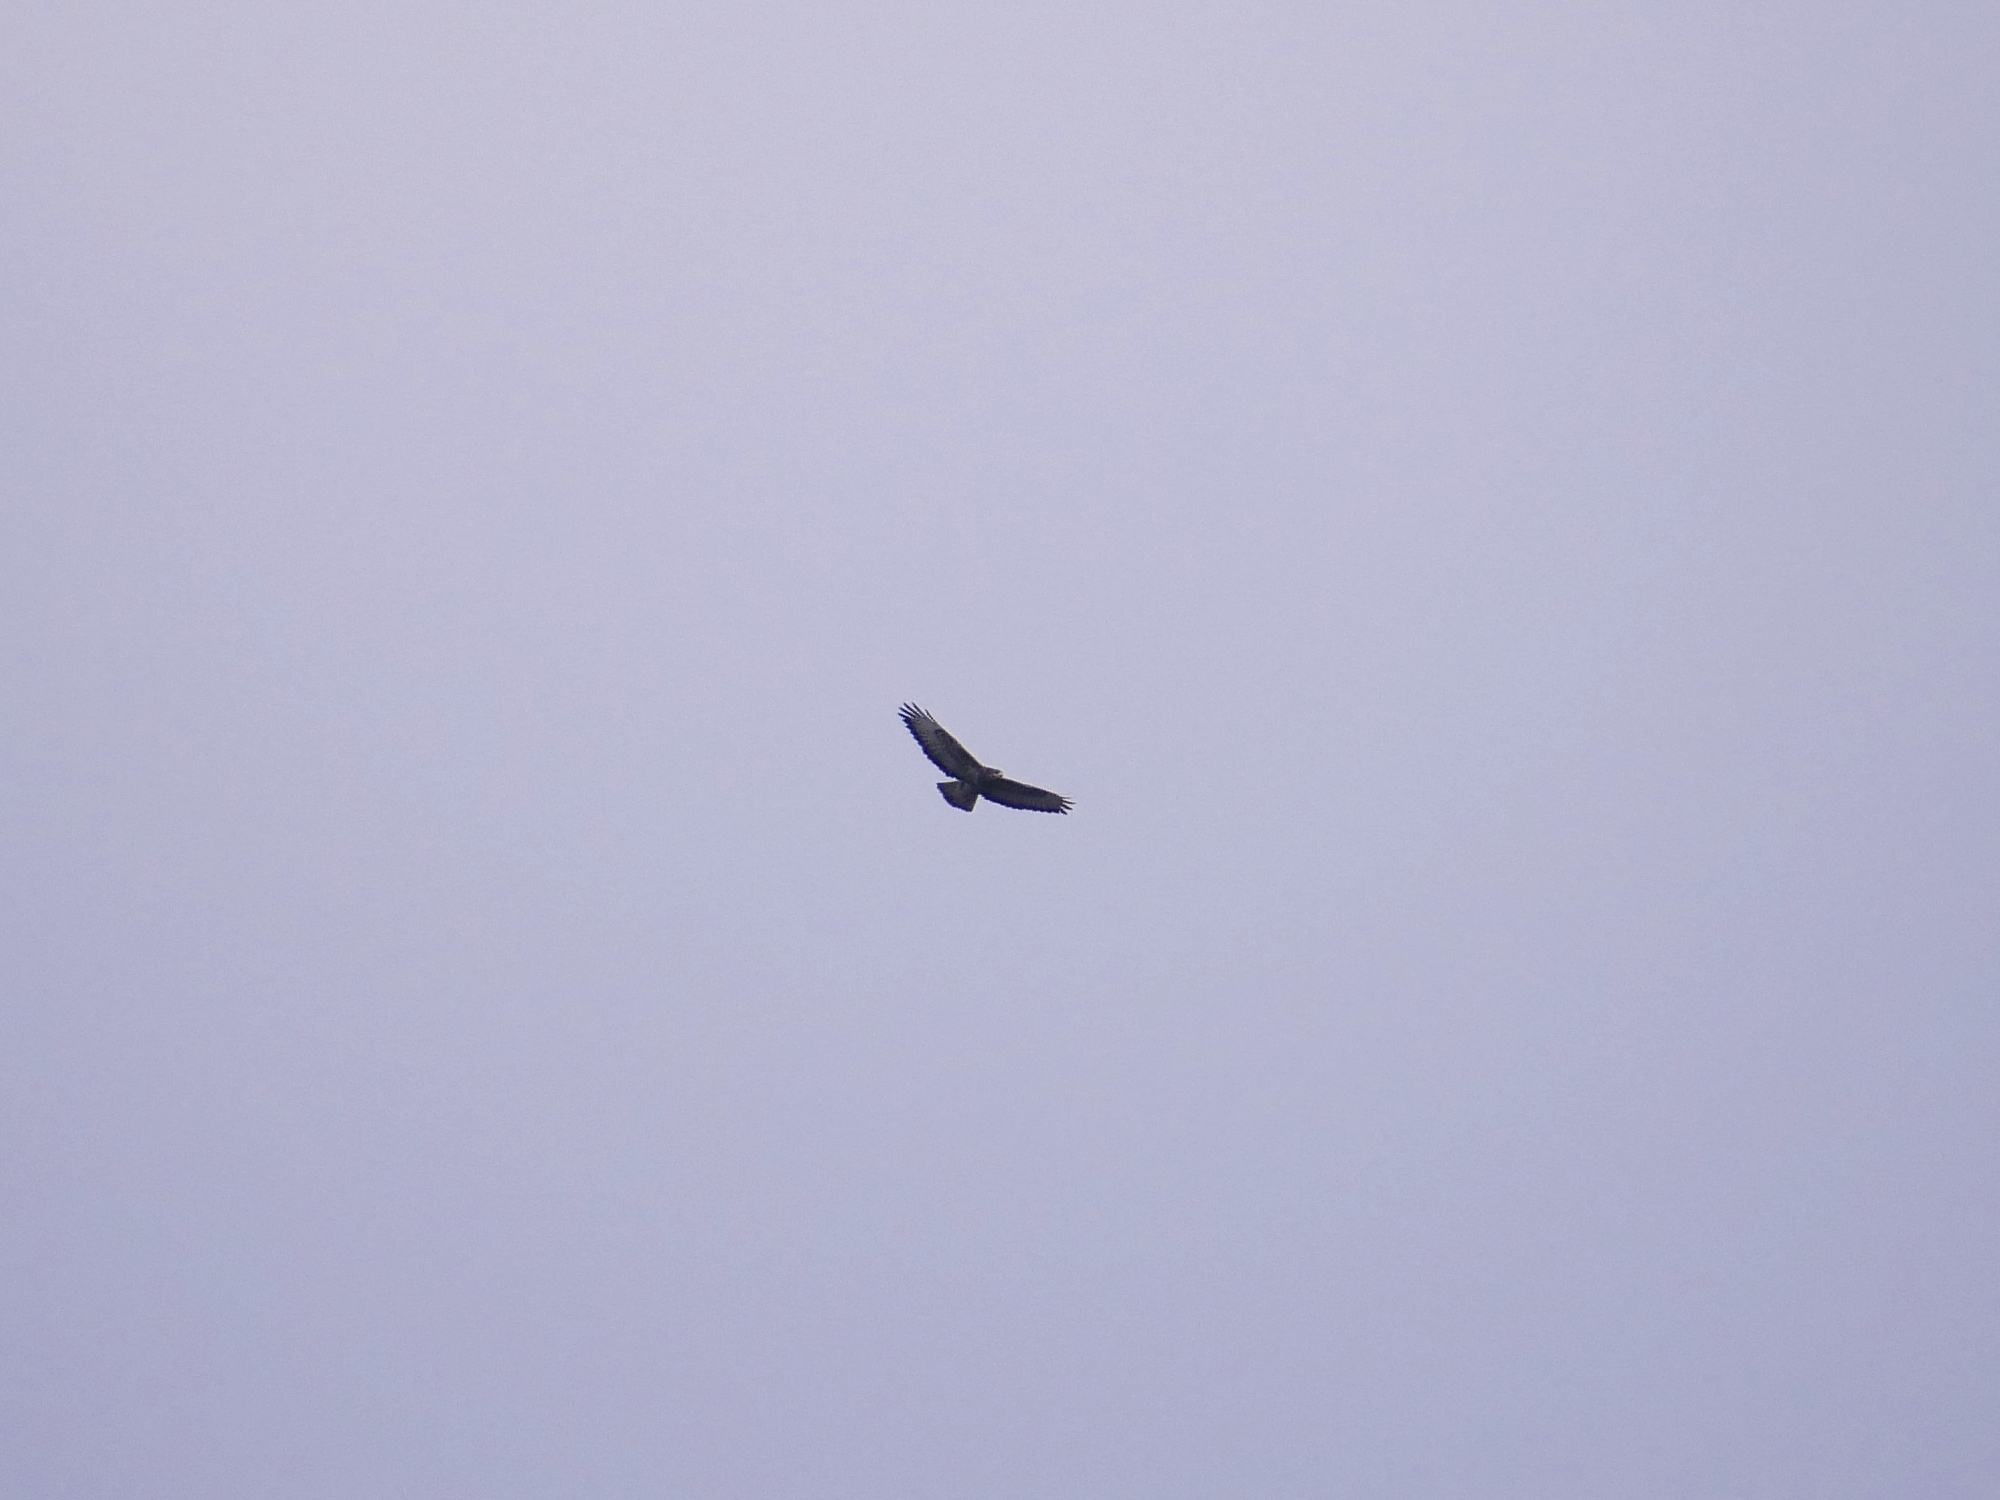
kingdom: Animalia
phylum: Chordata
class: Aves
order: Accipitriformes
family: Accipitridae
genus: Buteo
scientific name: Buteo buteo
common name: Common buzzard
